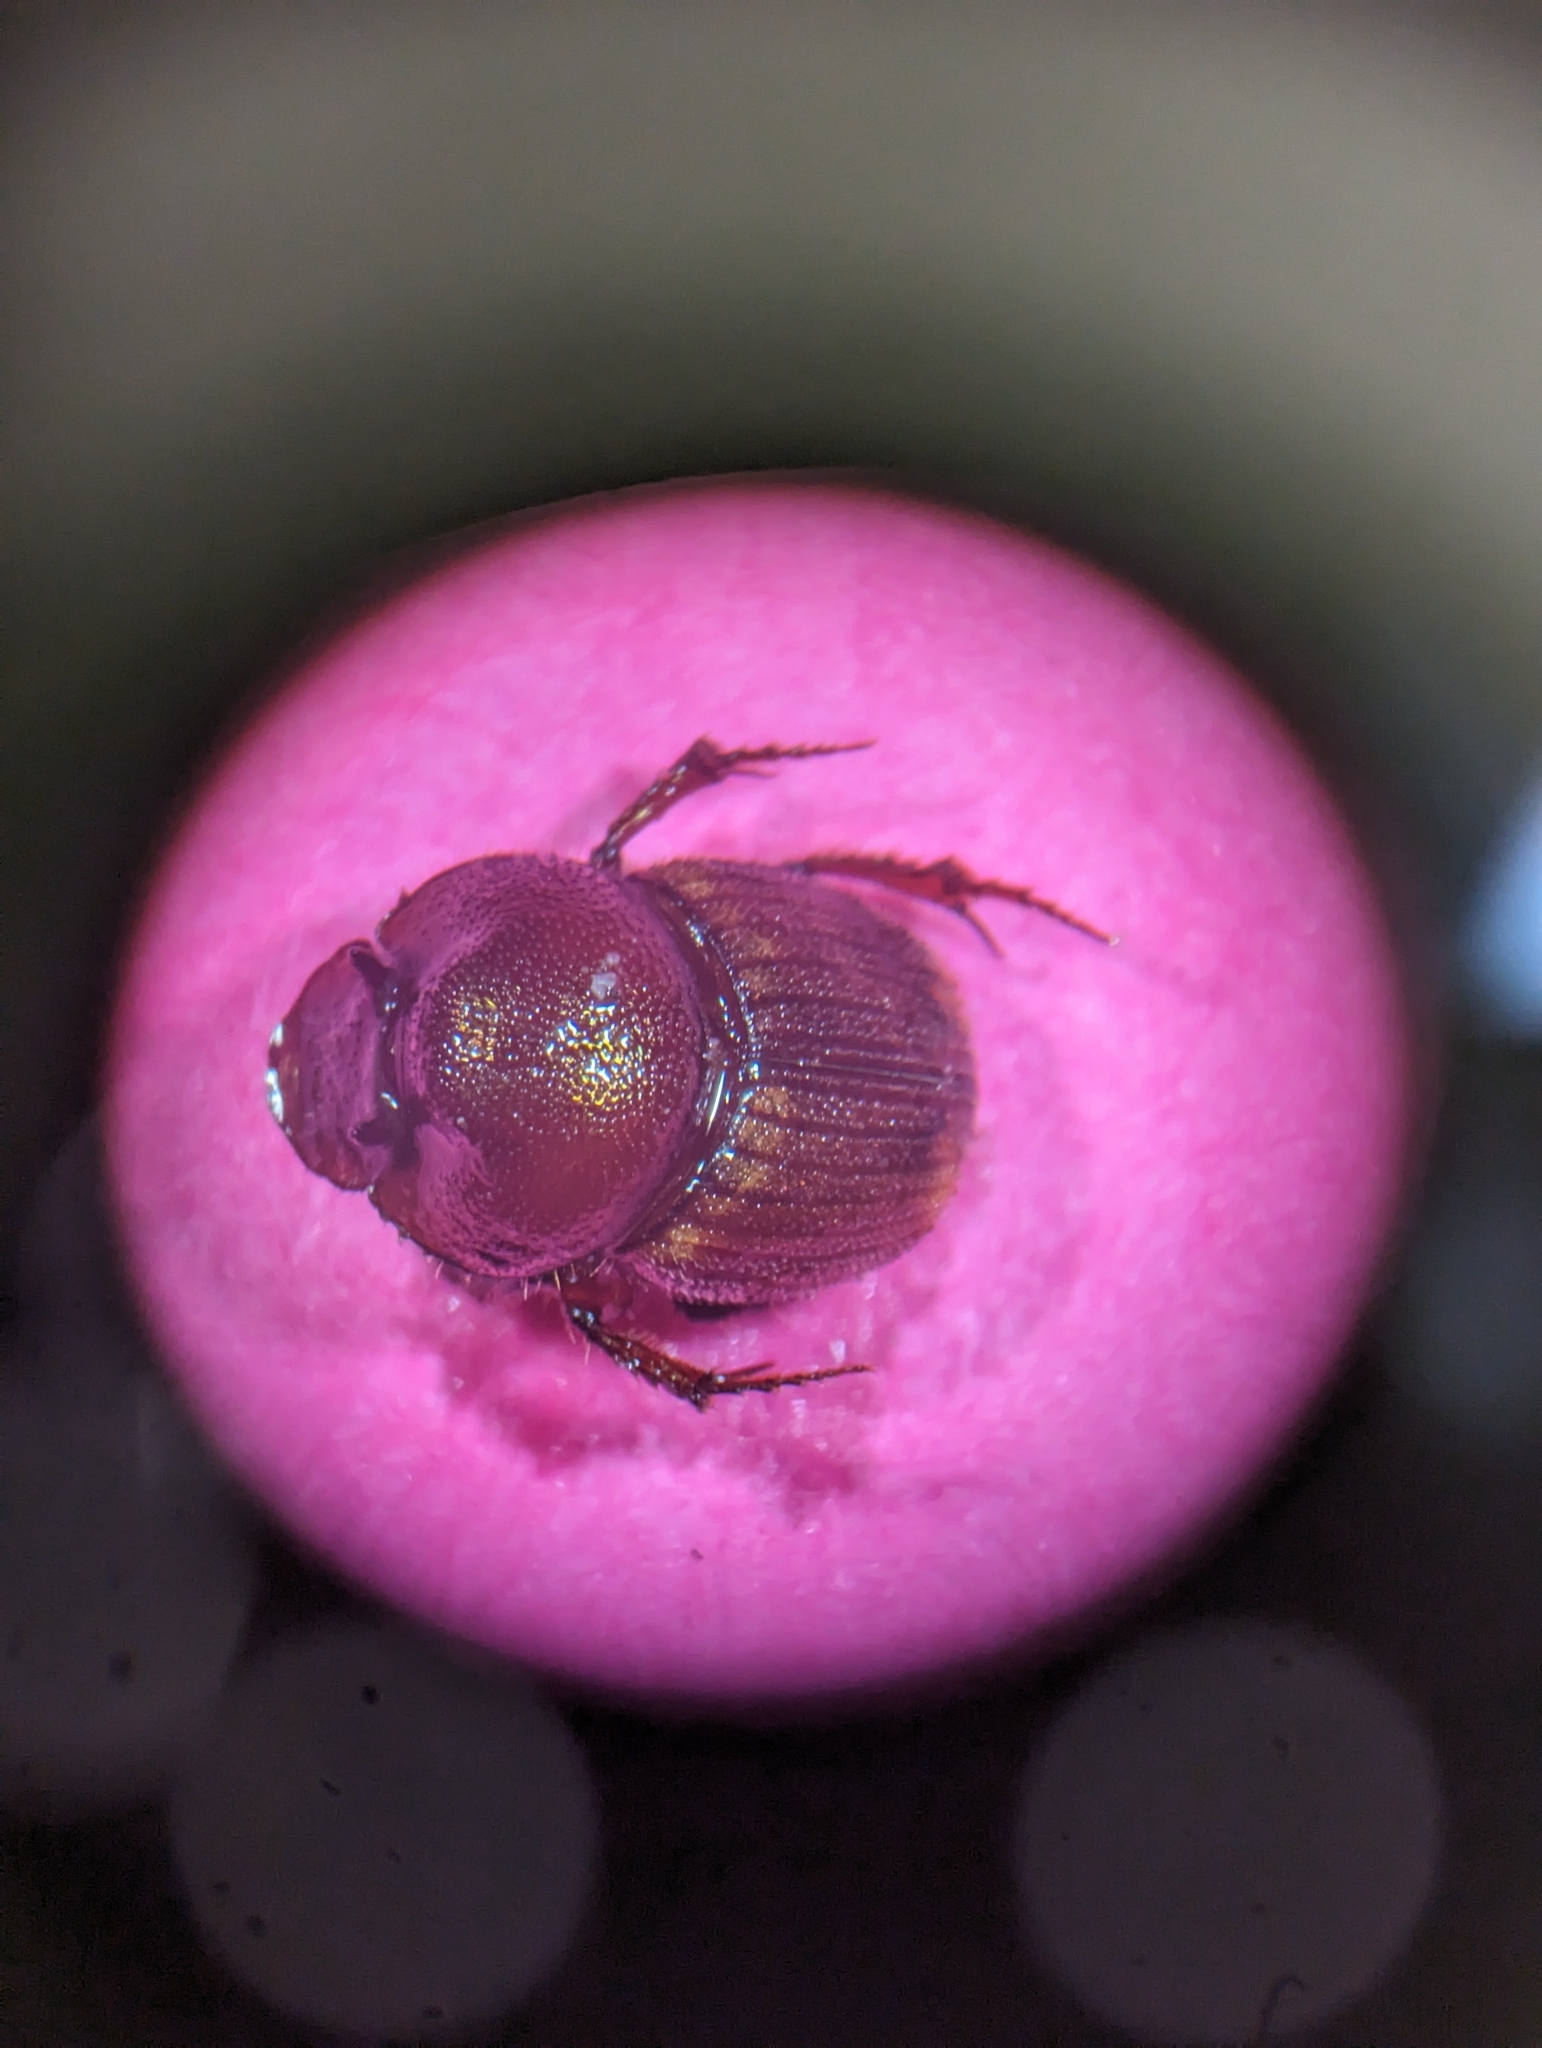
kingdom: Animalia
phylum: Arthropoda
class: Insecta
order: Coleoptera
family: Scarabaeidae
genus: Onthophagus
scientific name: Onthophagus striatulus
